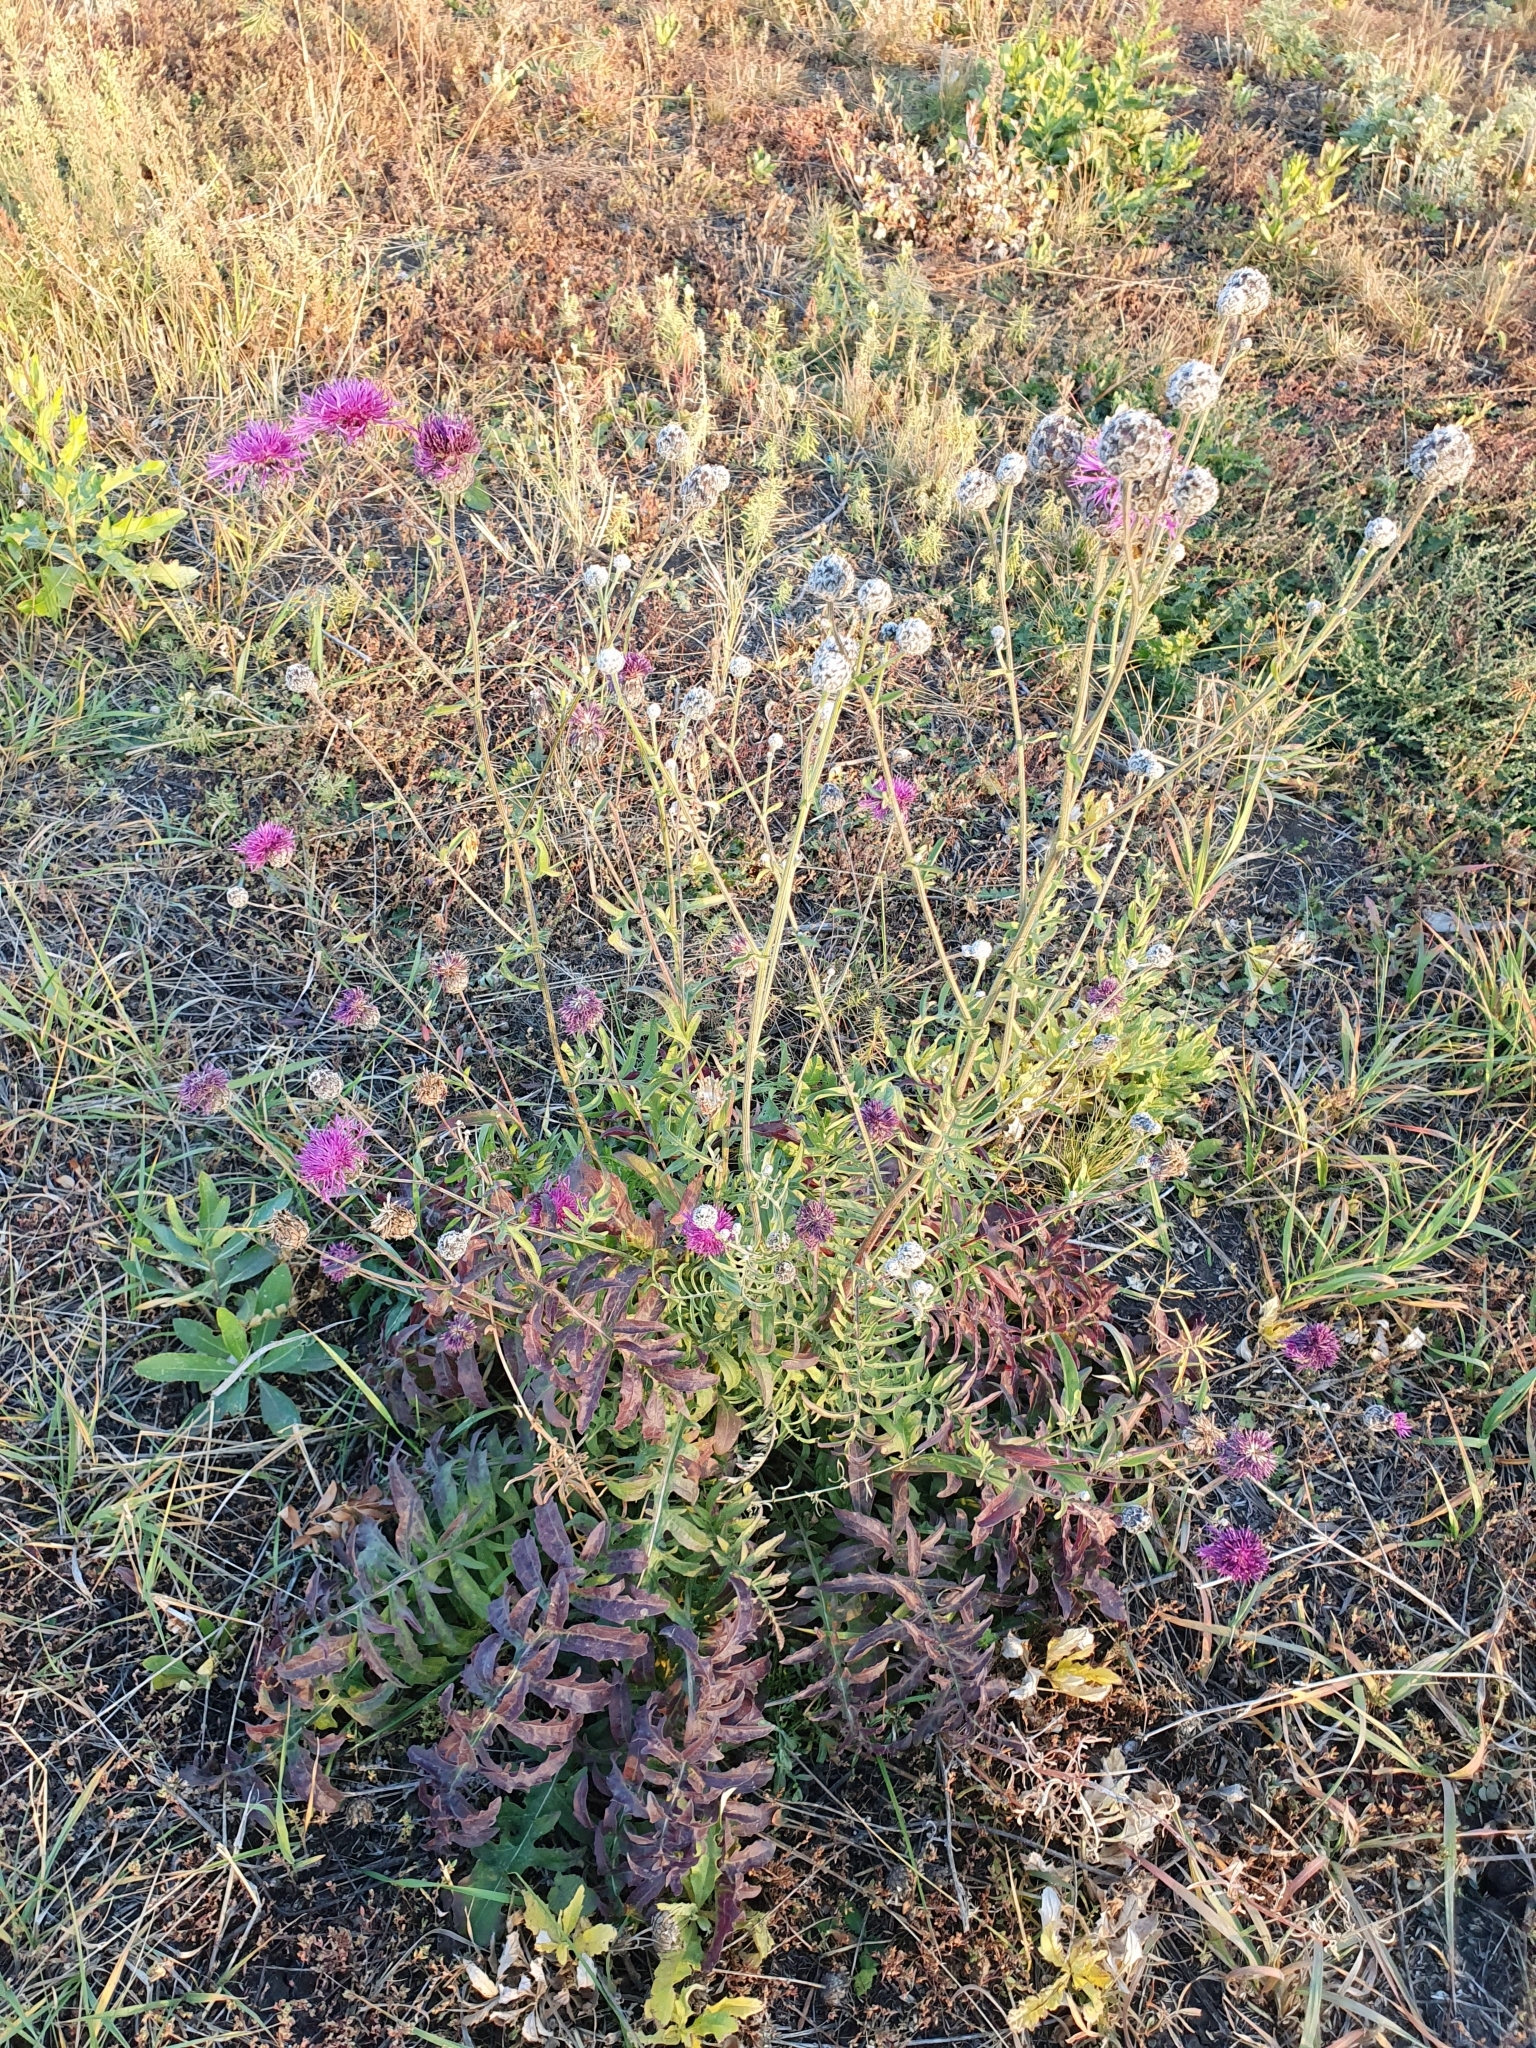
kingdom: Plantae
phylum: Tracheophyta
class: Magnoliopsida
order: Asterales
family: Asteraceae
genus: Centaurea
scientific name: Centaurea scabiosa
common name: Greater knapweed
